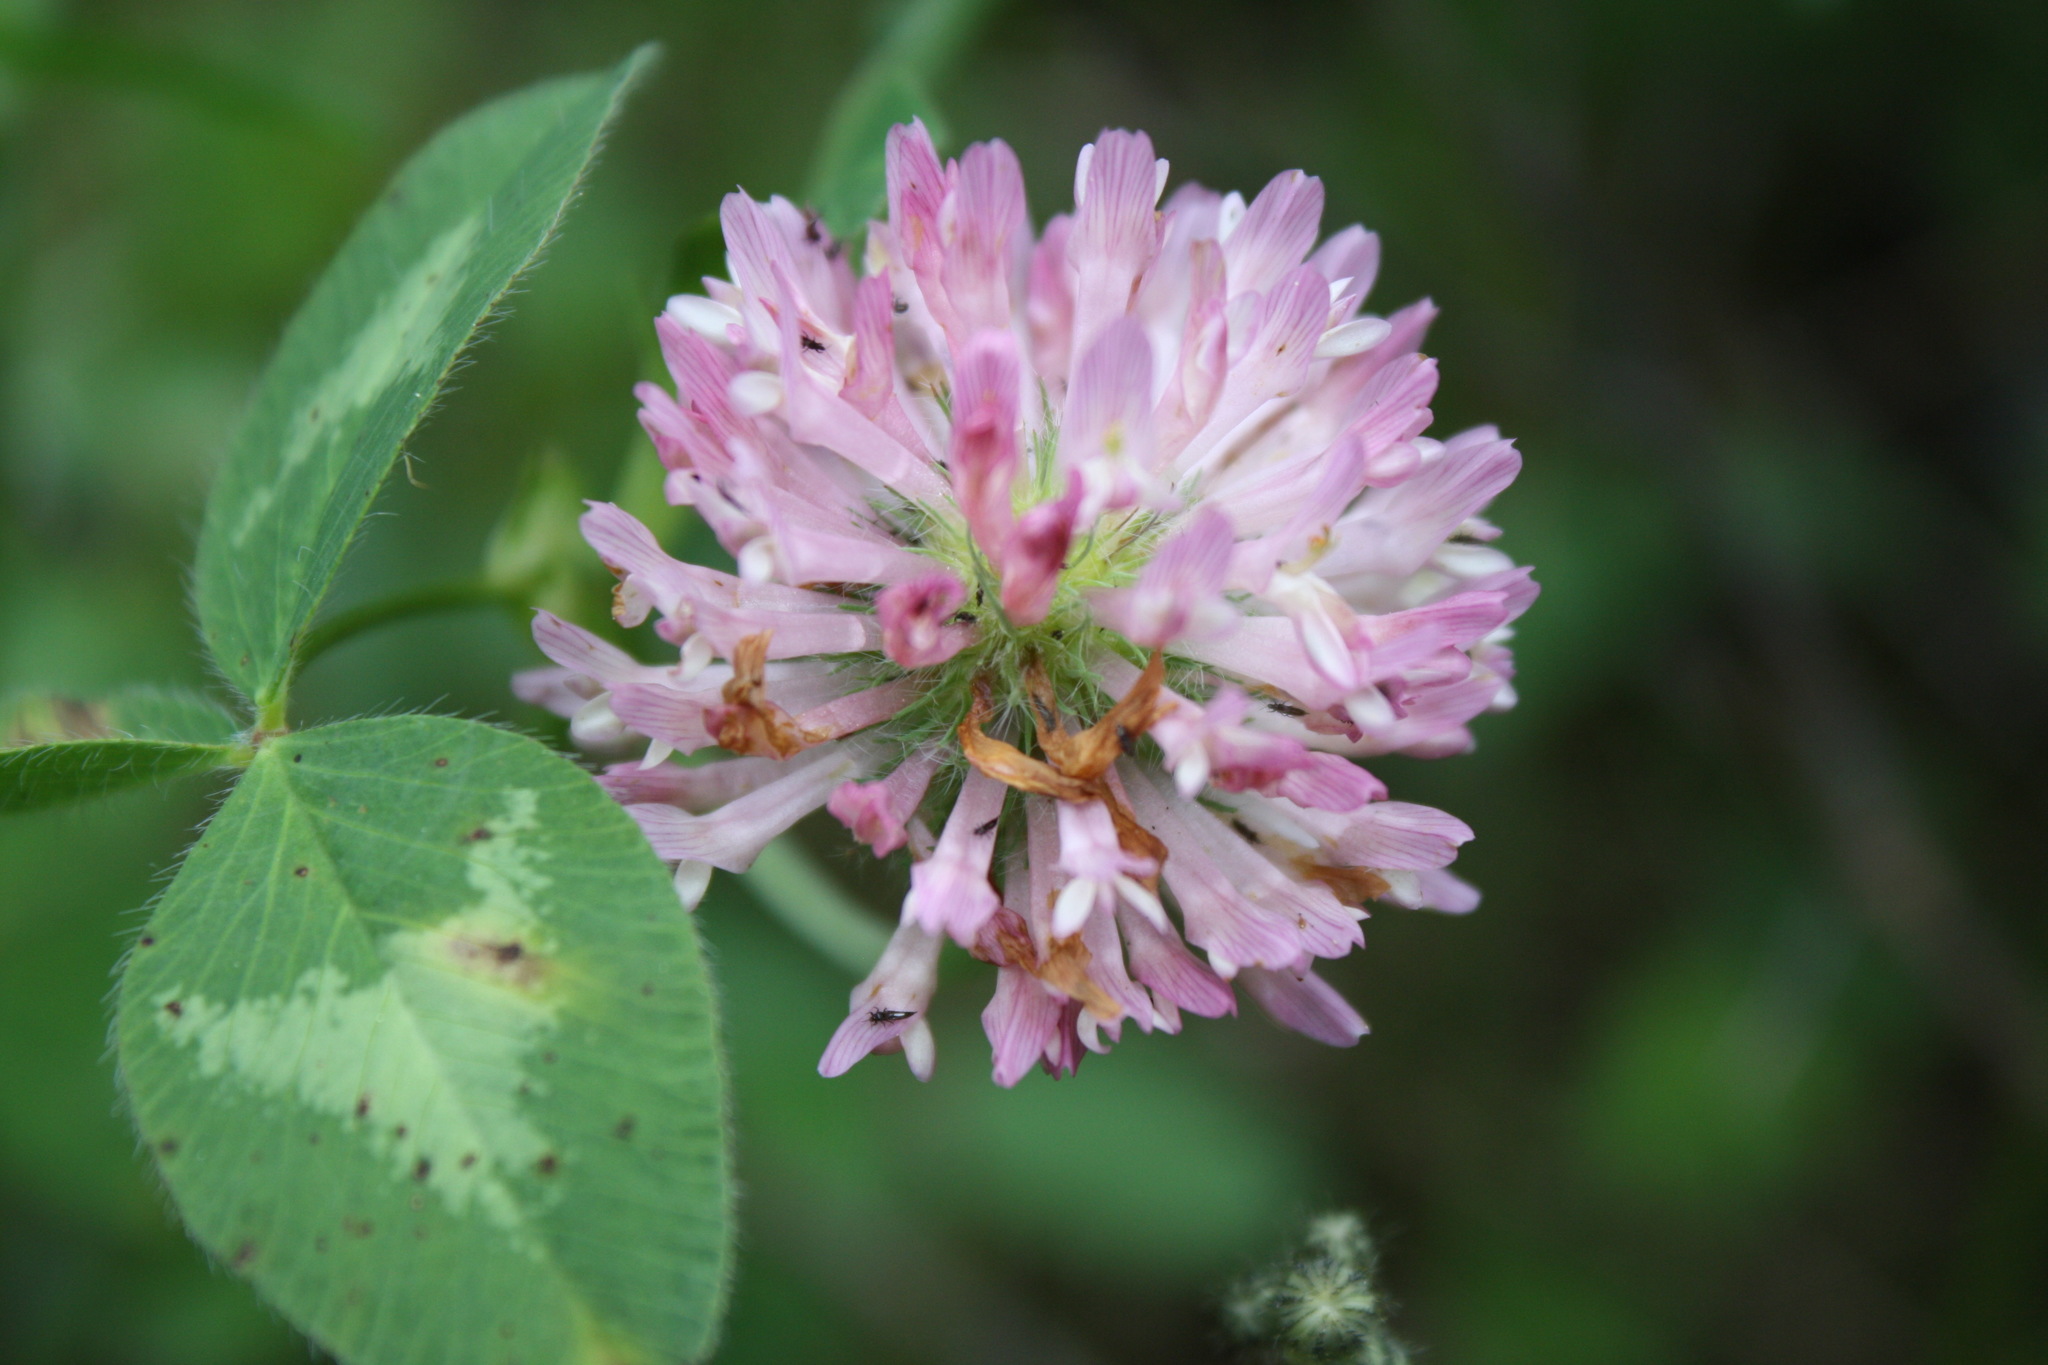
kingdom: Plantae
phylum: Tracheophyta
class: Magnoliopsida
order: Fabales
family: Fabaceae
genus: Trifolium
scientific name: Trifolium pratense
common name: Red clover
